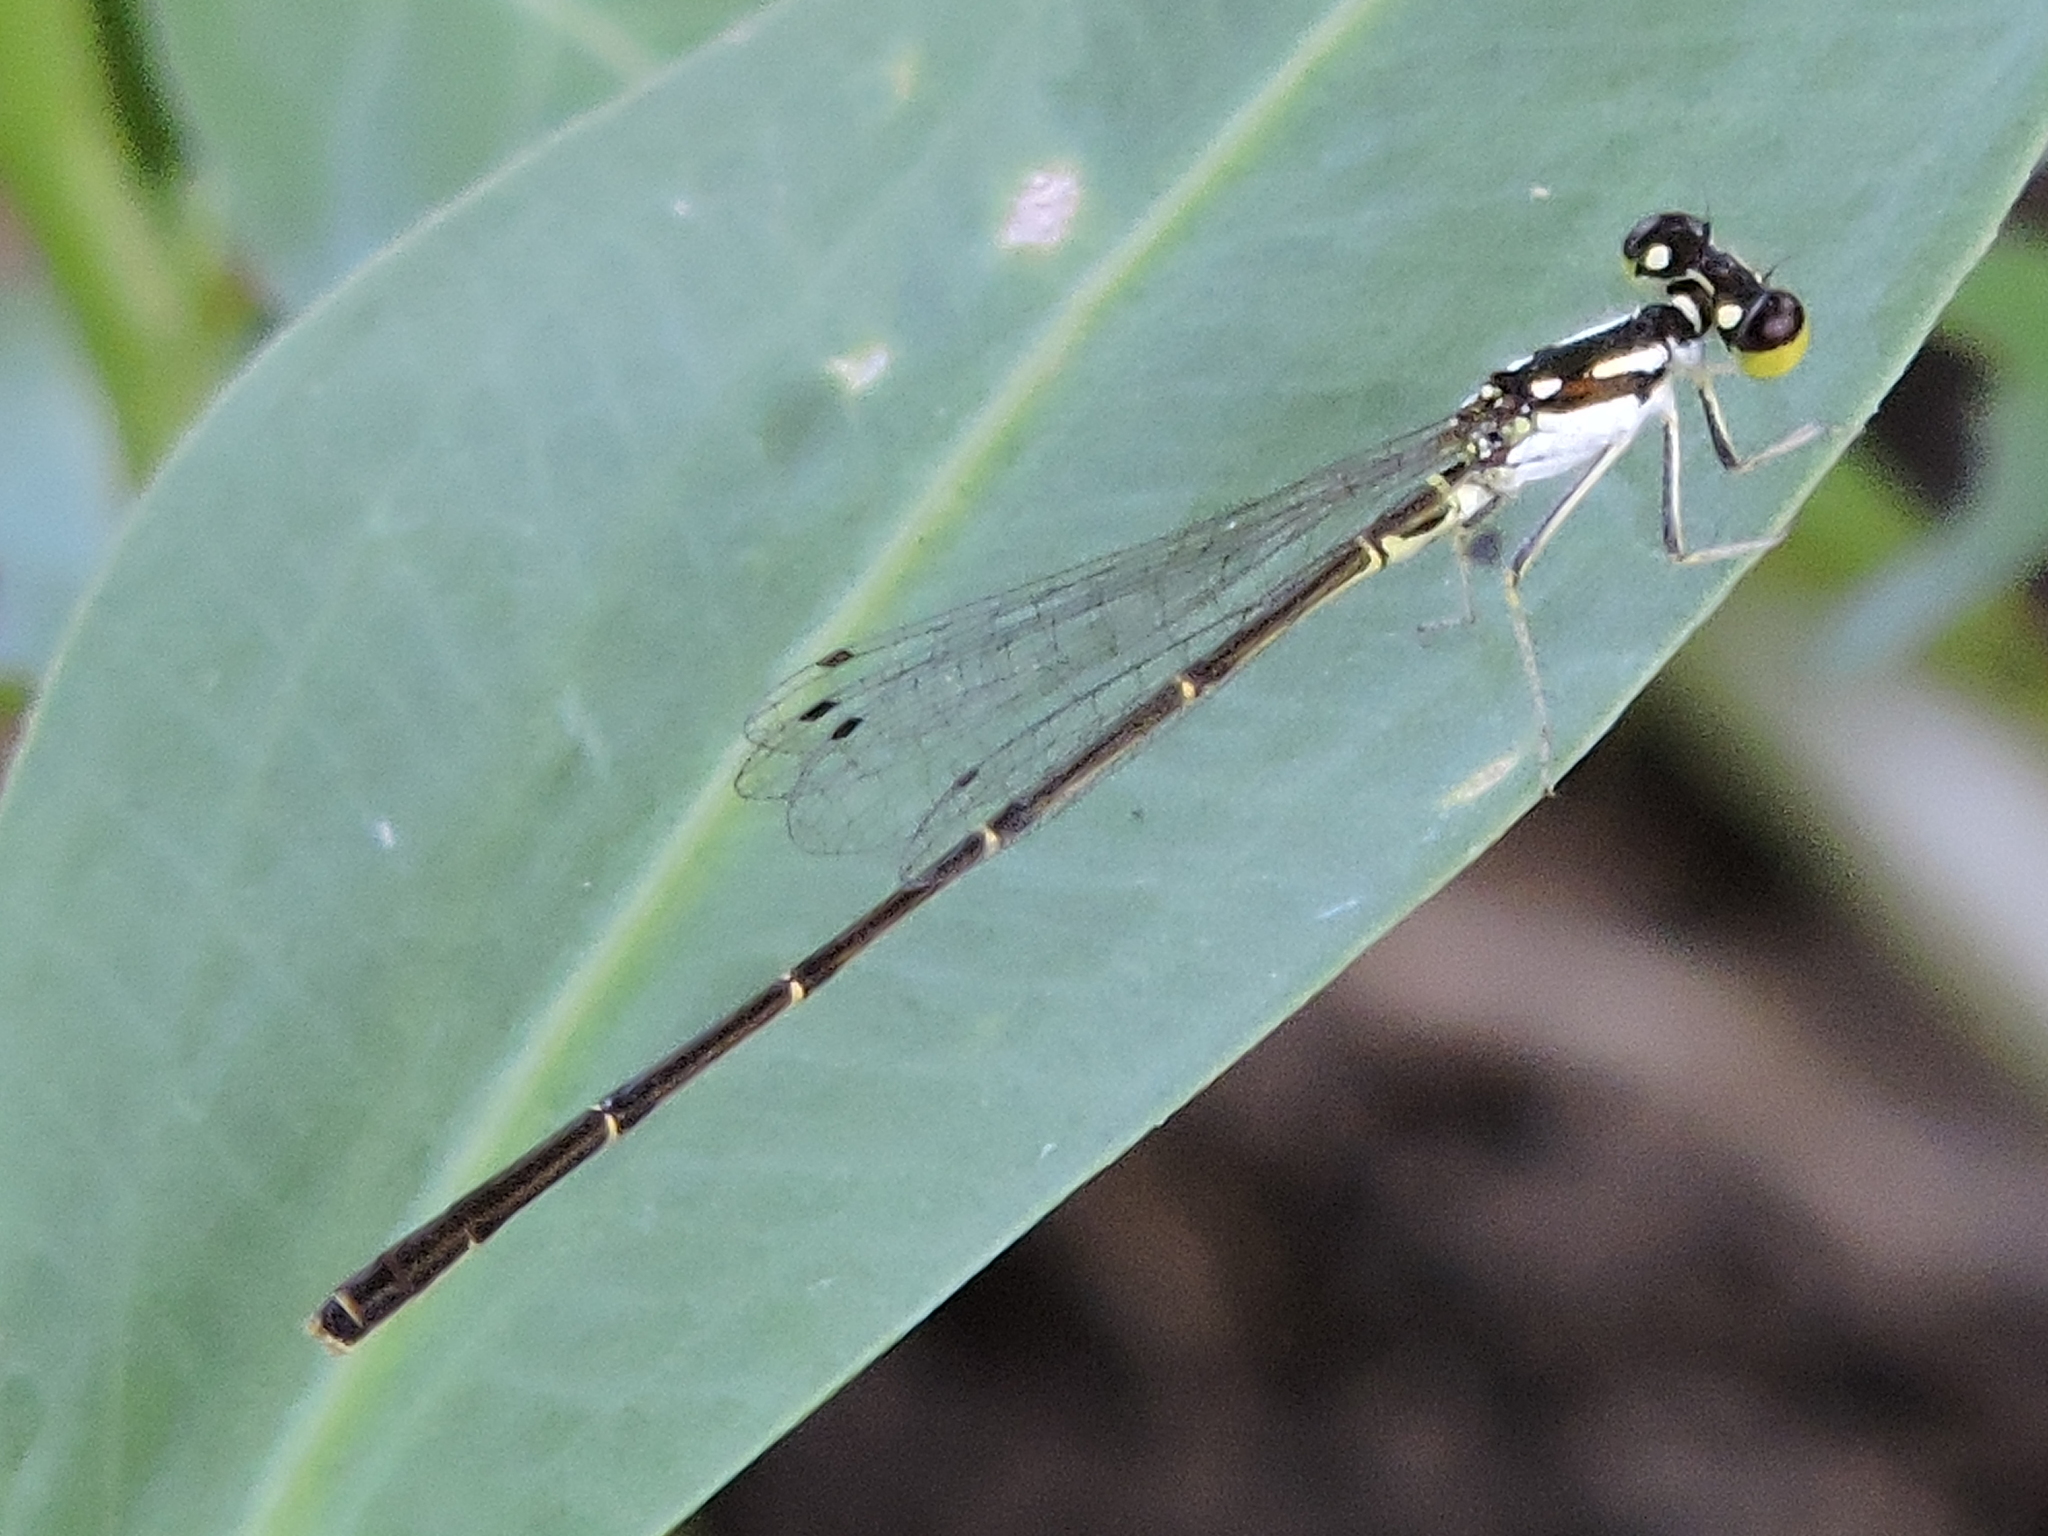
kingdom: Animalia
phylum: Arthropoda
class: Insecta
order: Odonata
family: Coenagrionidae
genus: Ischnura
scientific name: Ischnura posita
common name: Fragile forktail
